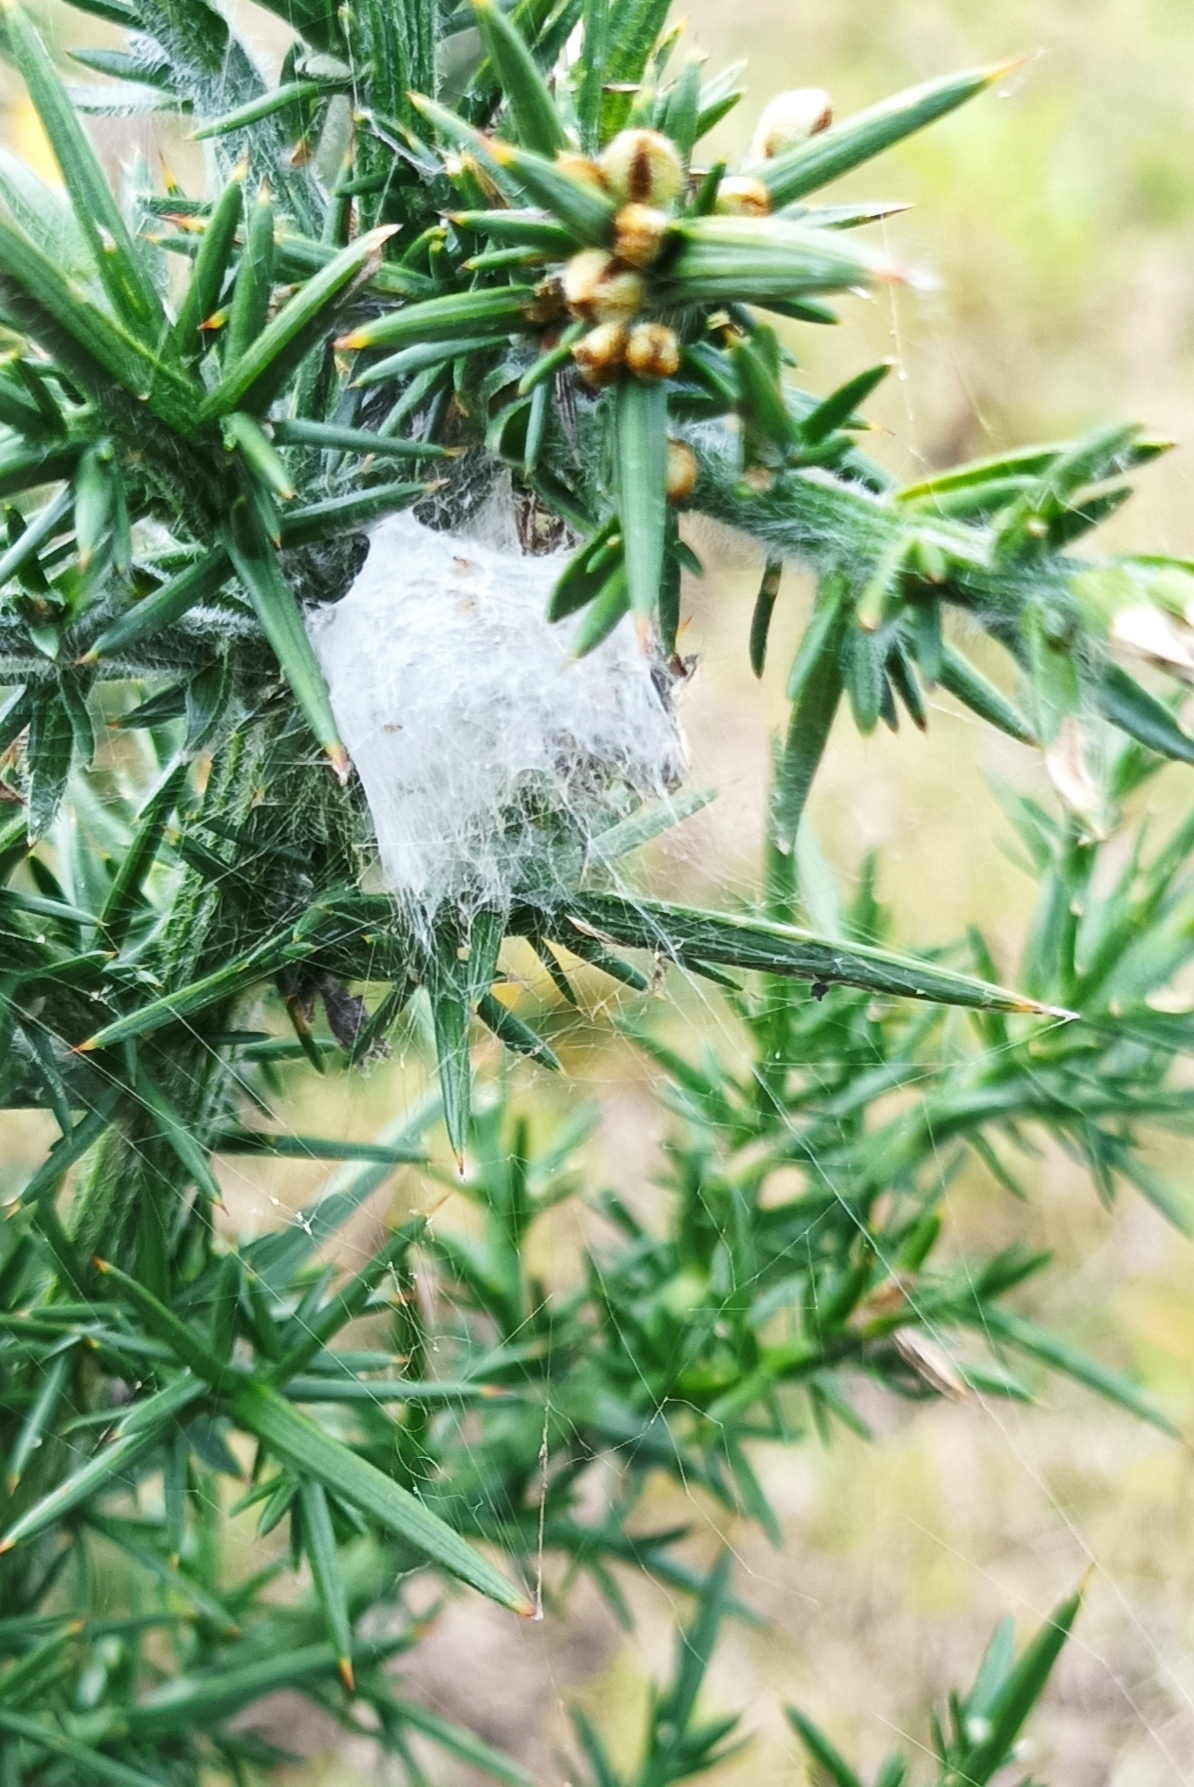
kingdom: Animalia
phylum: Arthropoda
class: Arachnida
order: Araneae
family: Araneidae
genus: Araneus
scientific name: Araneus granadensis
